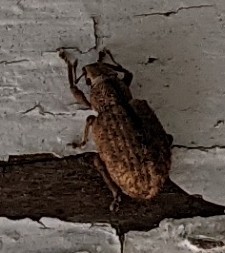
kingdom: Animalia
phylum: Arthropoda
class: Insecta
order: Coleoptera
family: Curculionidae
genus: Strophosoma
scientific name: Strophosoma melanogrammum
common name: Weevil
